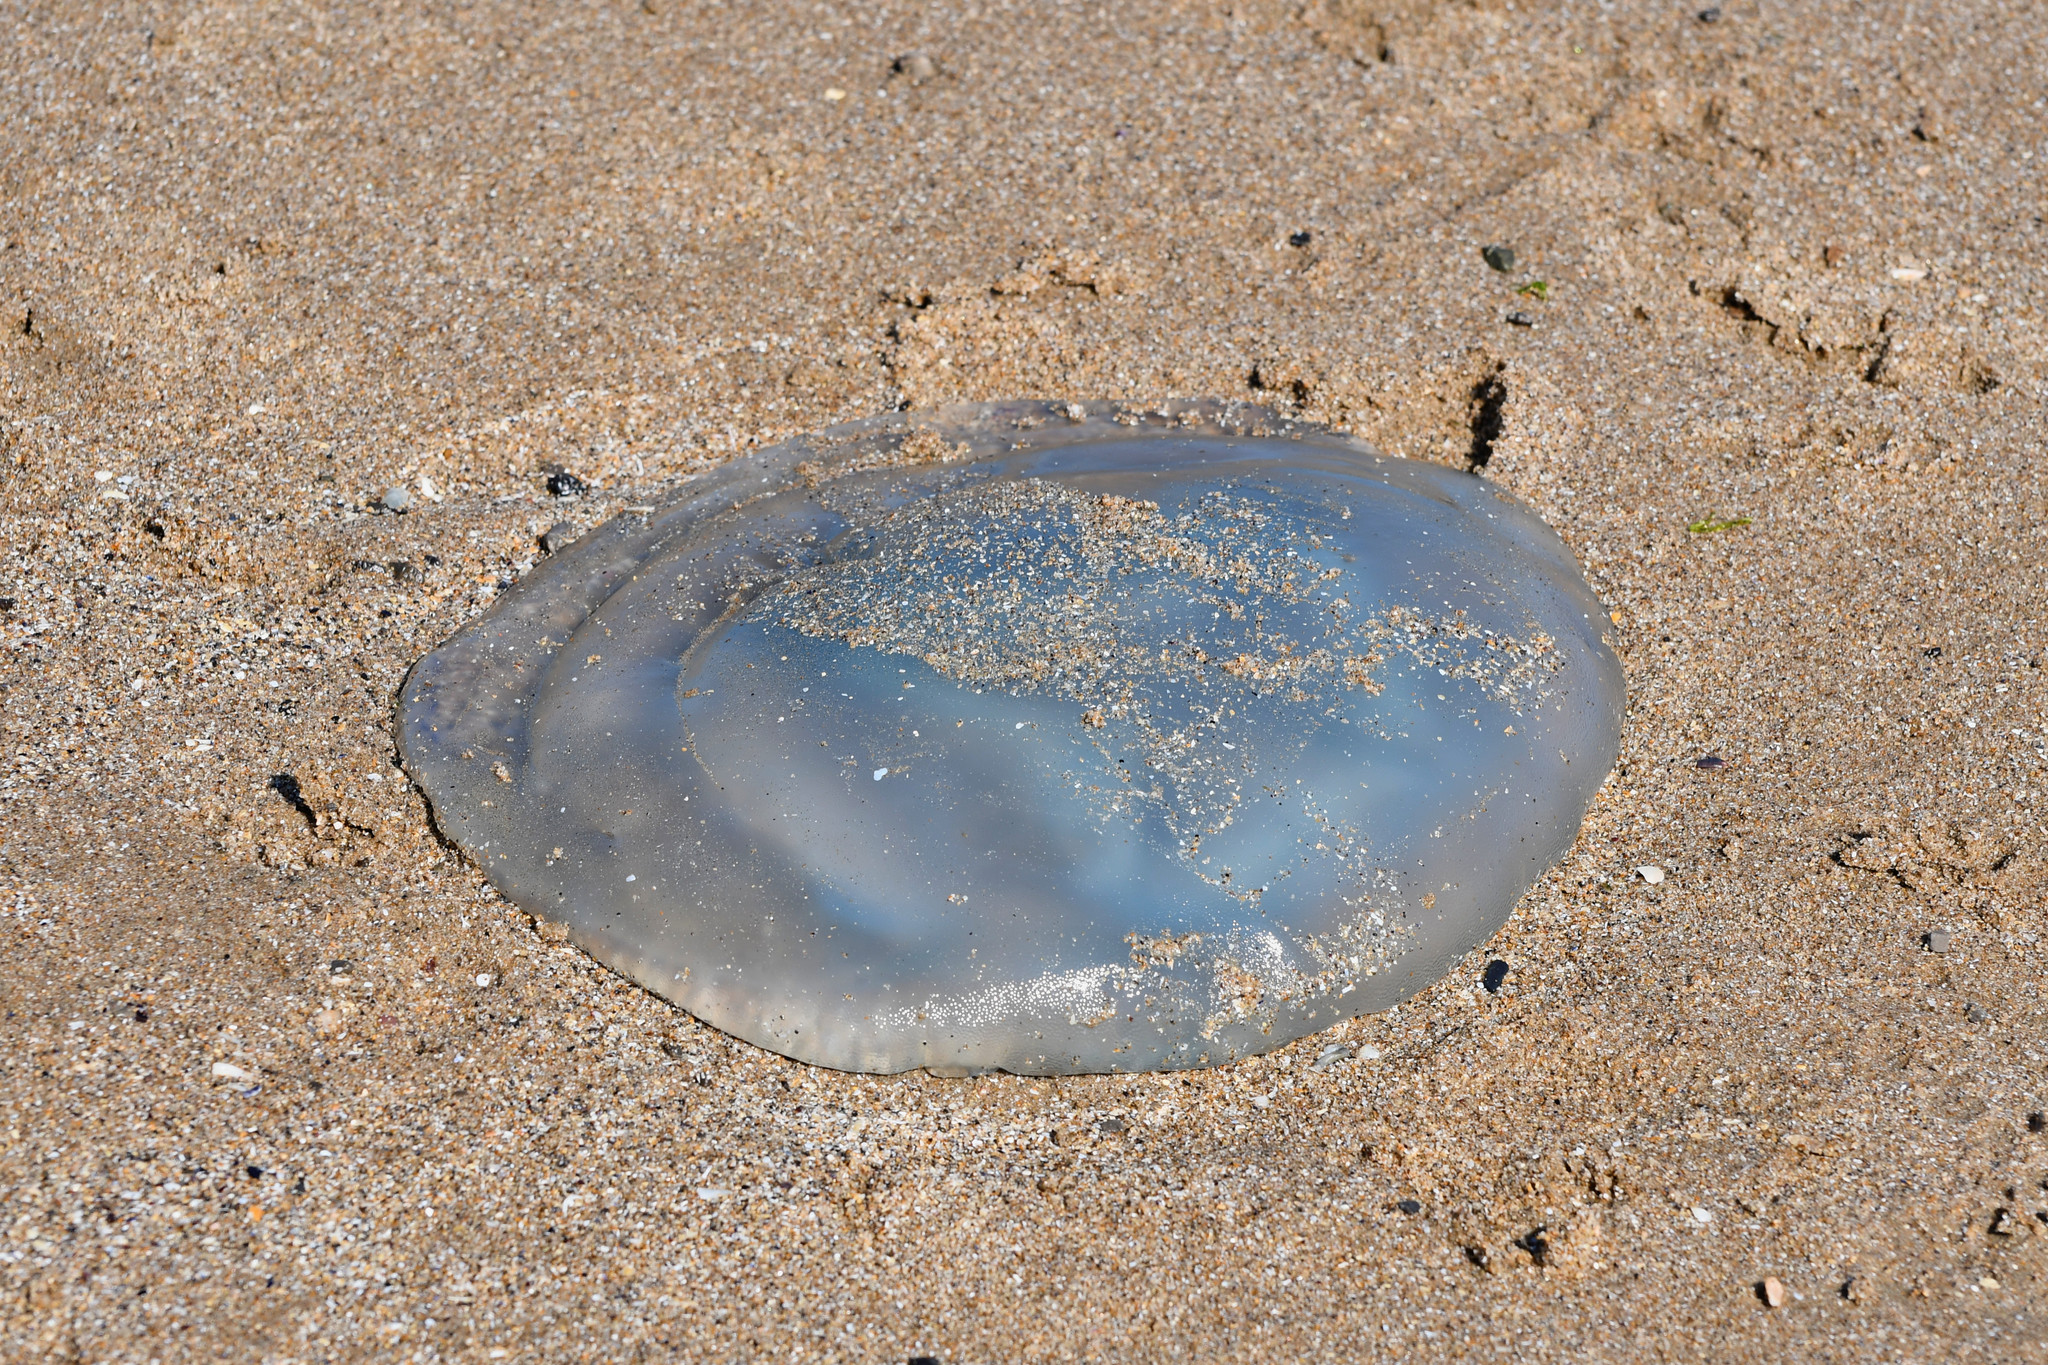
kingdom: Animalia
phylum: Cnidaria
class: Scyphozoa
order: Rhizostomeae
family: Rhizostomatidae
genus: Rhizostoma
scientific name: Rhizostoma octopus
